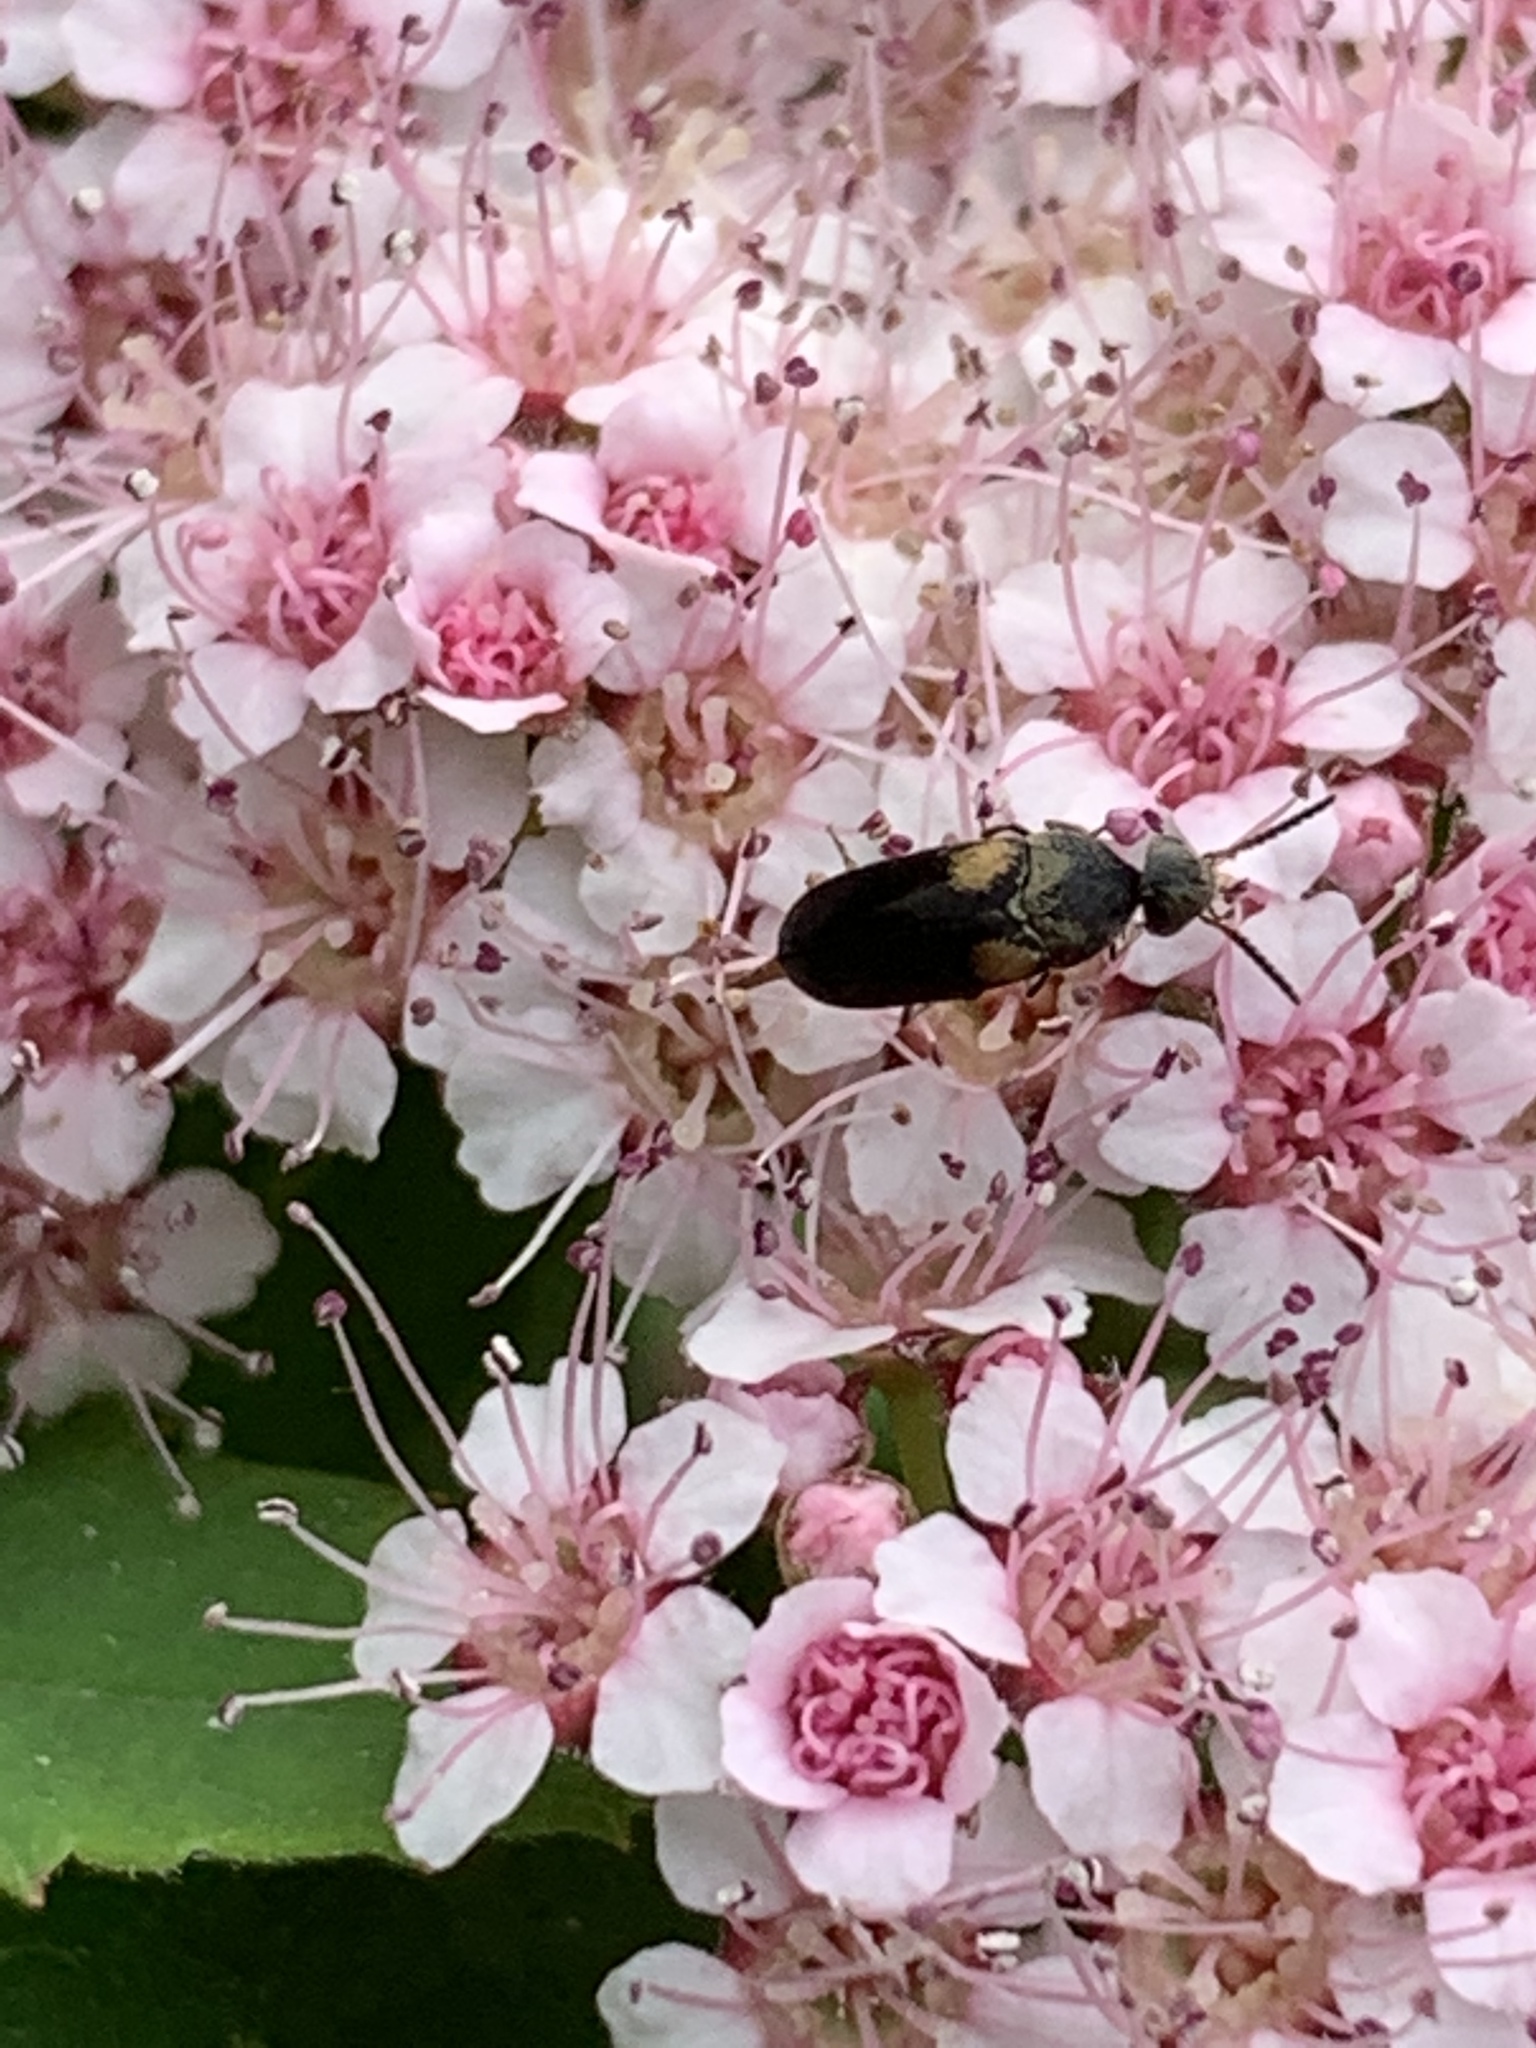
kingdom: Animalia
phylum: Arthropoda
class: Insecta
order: Coleoptera
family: Mordellidae
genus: Mordellochroa
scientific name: Mordellochroa scapularis
